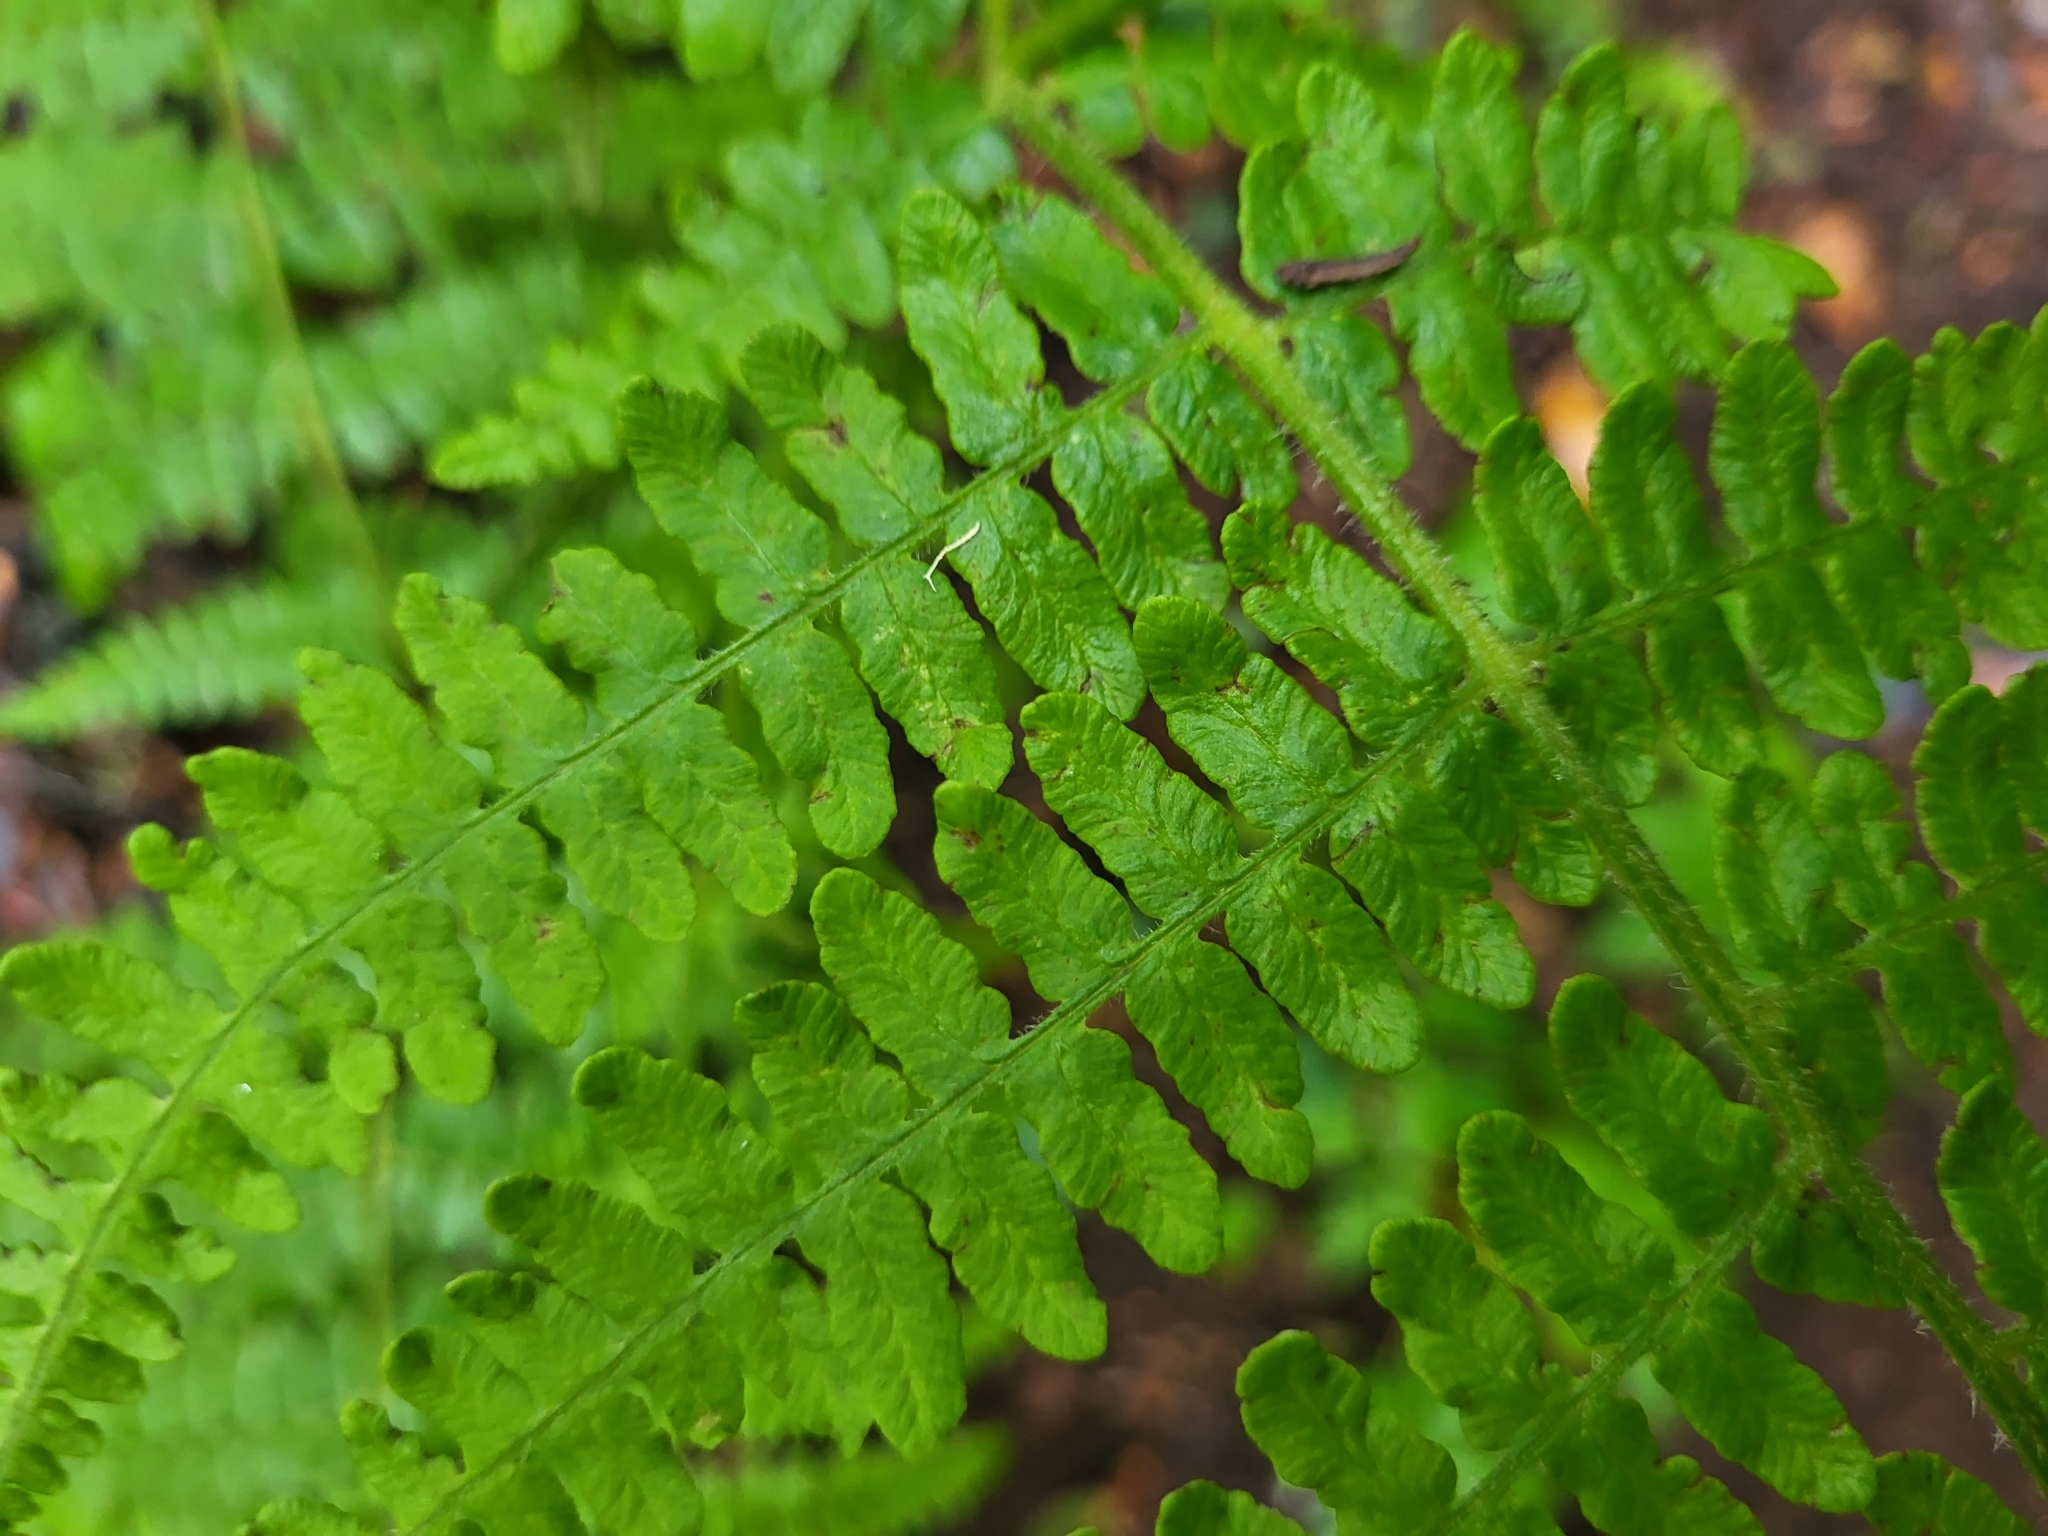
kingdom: Plantae
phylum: Tracheophyta
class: Polypodiopsida
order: Polypodiales
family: Dennstaedtiaceae
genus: Pteridium
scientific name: Pteridium aquilinum
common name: Bracken
